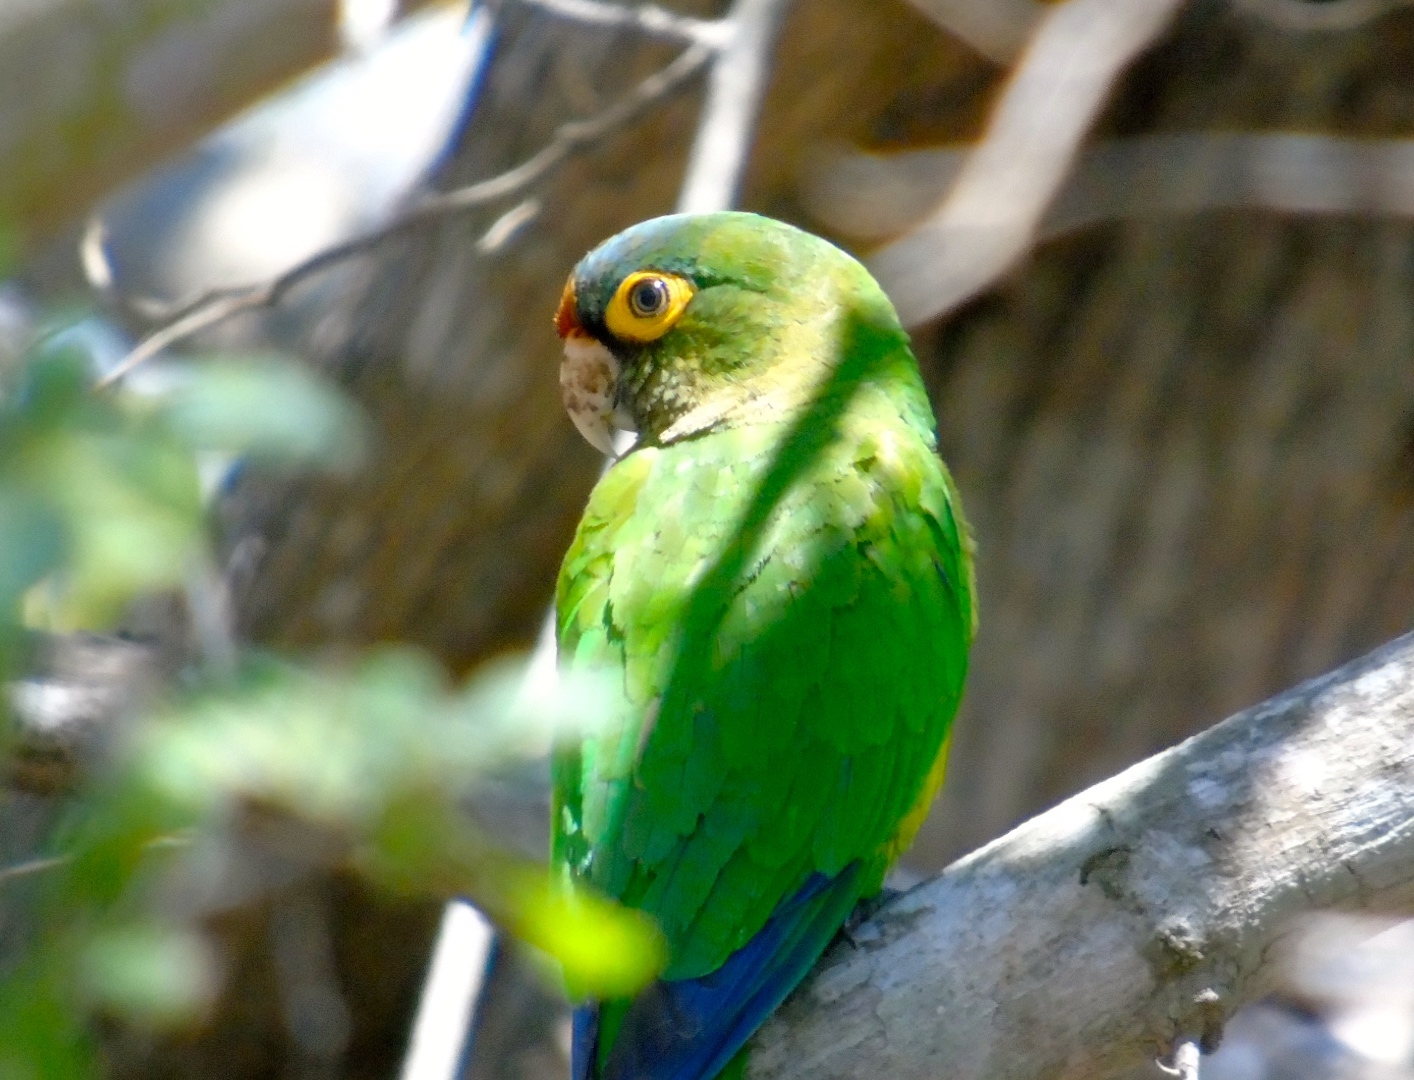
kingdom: Animalia
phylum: Chordata
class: Aves
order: Psittaciformes
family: Psittacidae
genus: Aratinga
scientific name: Aratinga canicularis
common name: Orange-fronted parakeet
